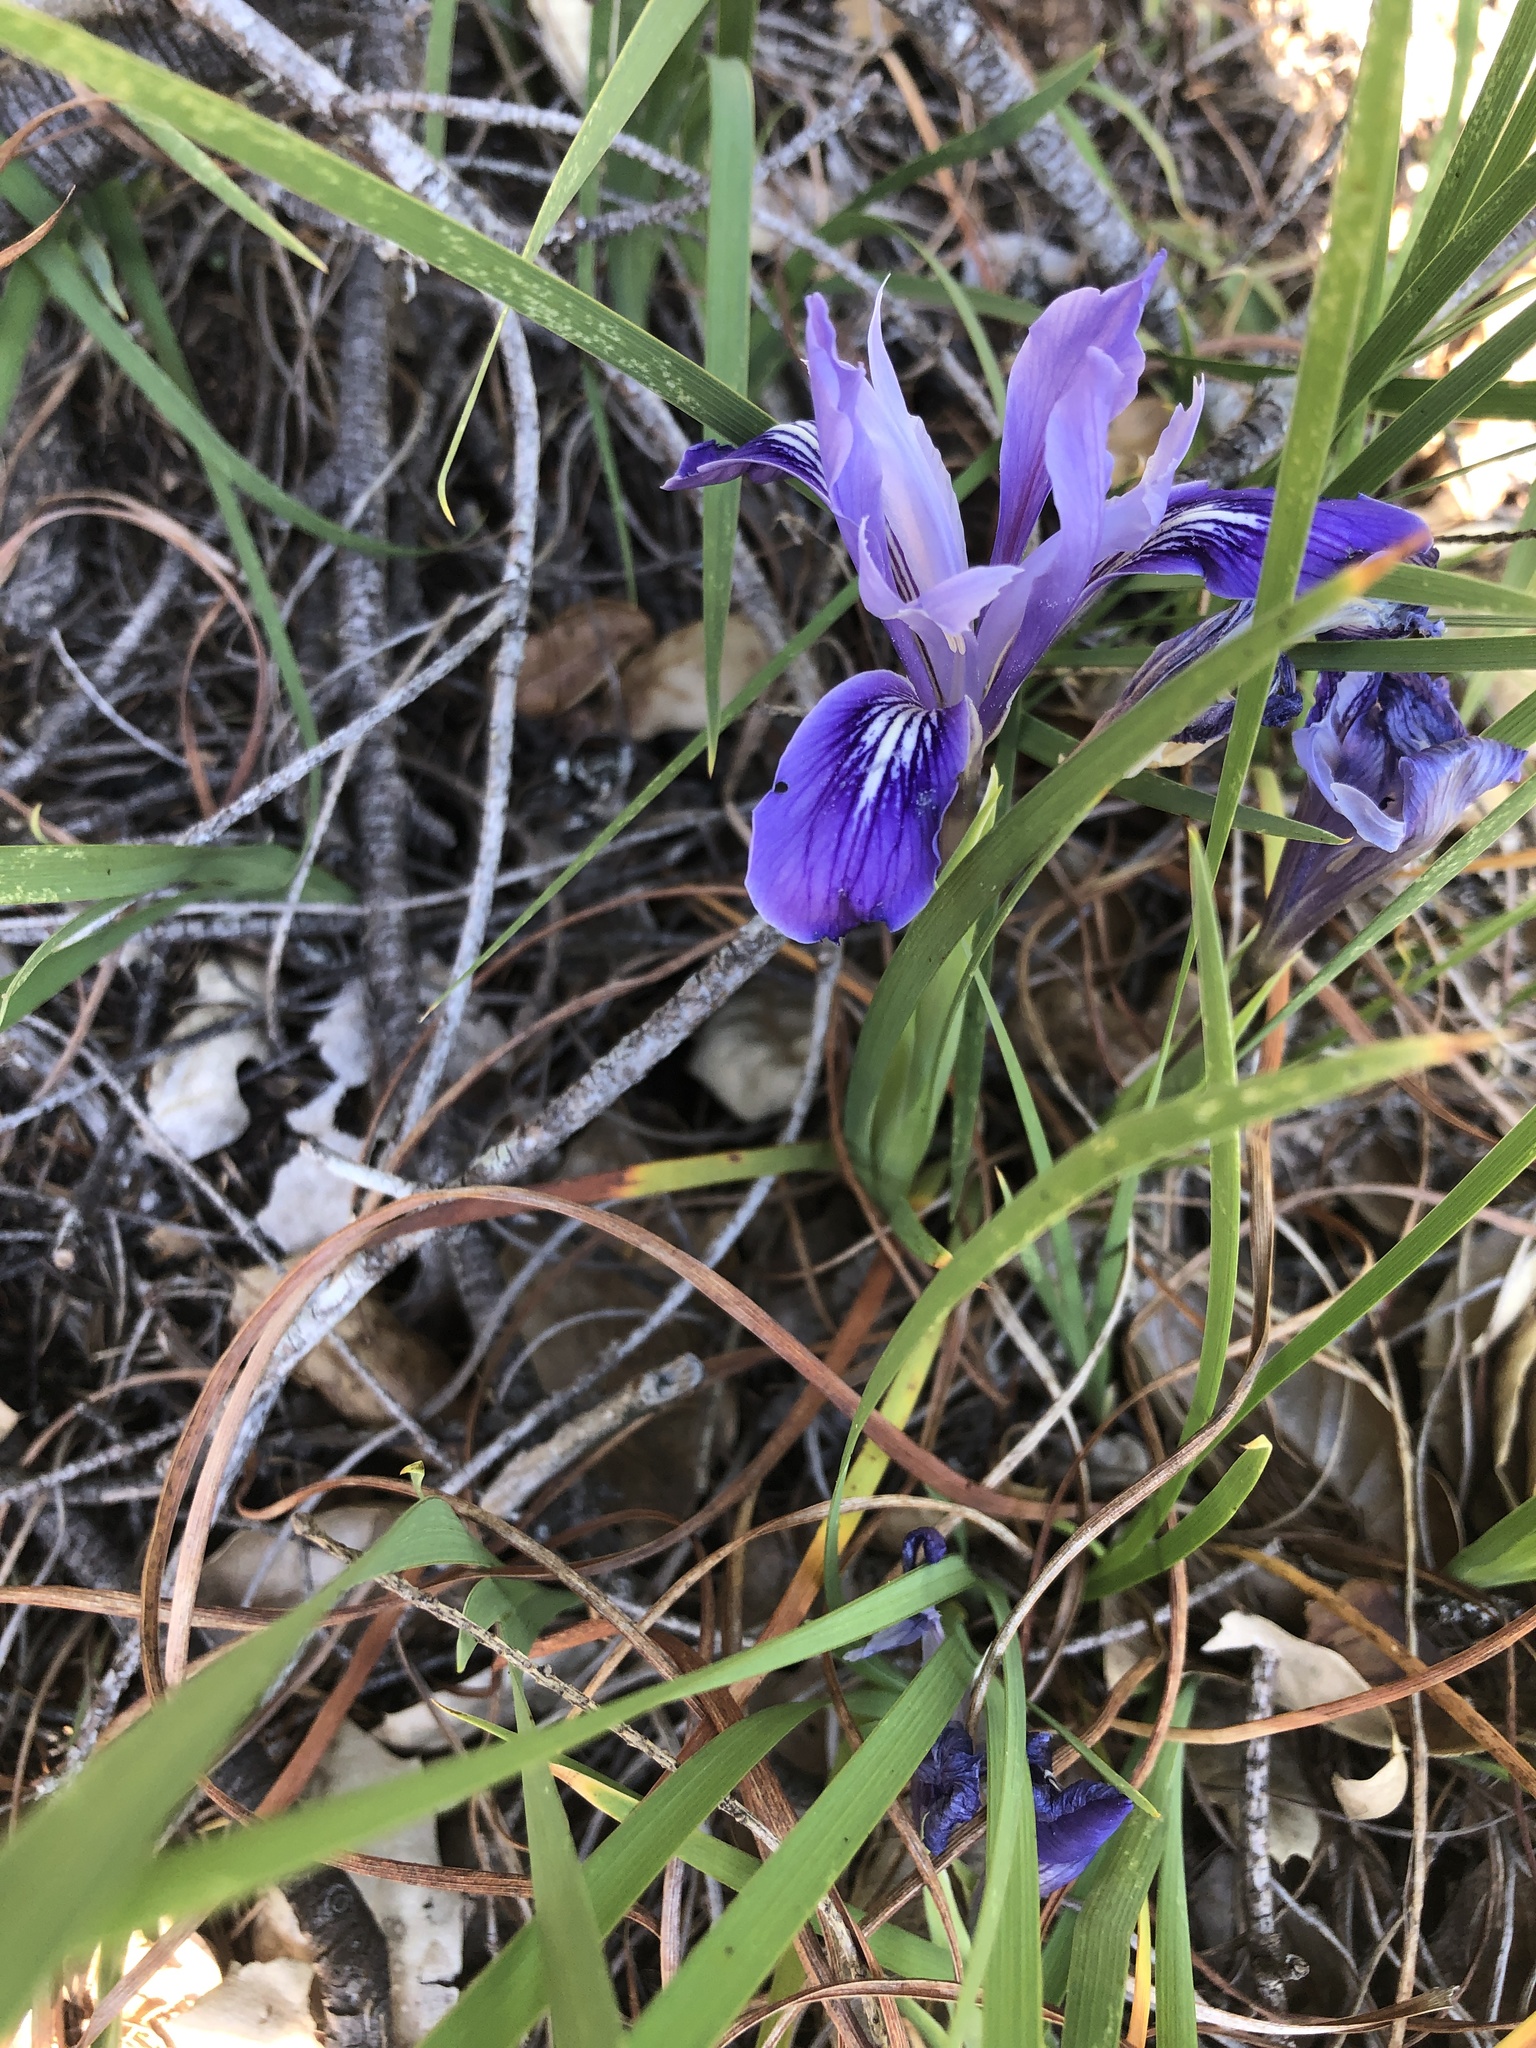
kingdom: Plantae
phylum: Tracheophyta
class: Liliopsida
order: Asparagales
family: Iridaceae
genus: Iris
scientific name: Iris macrosiphon
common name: Ground iris
